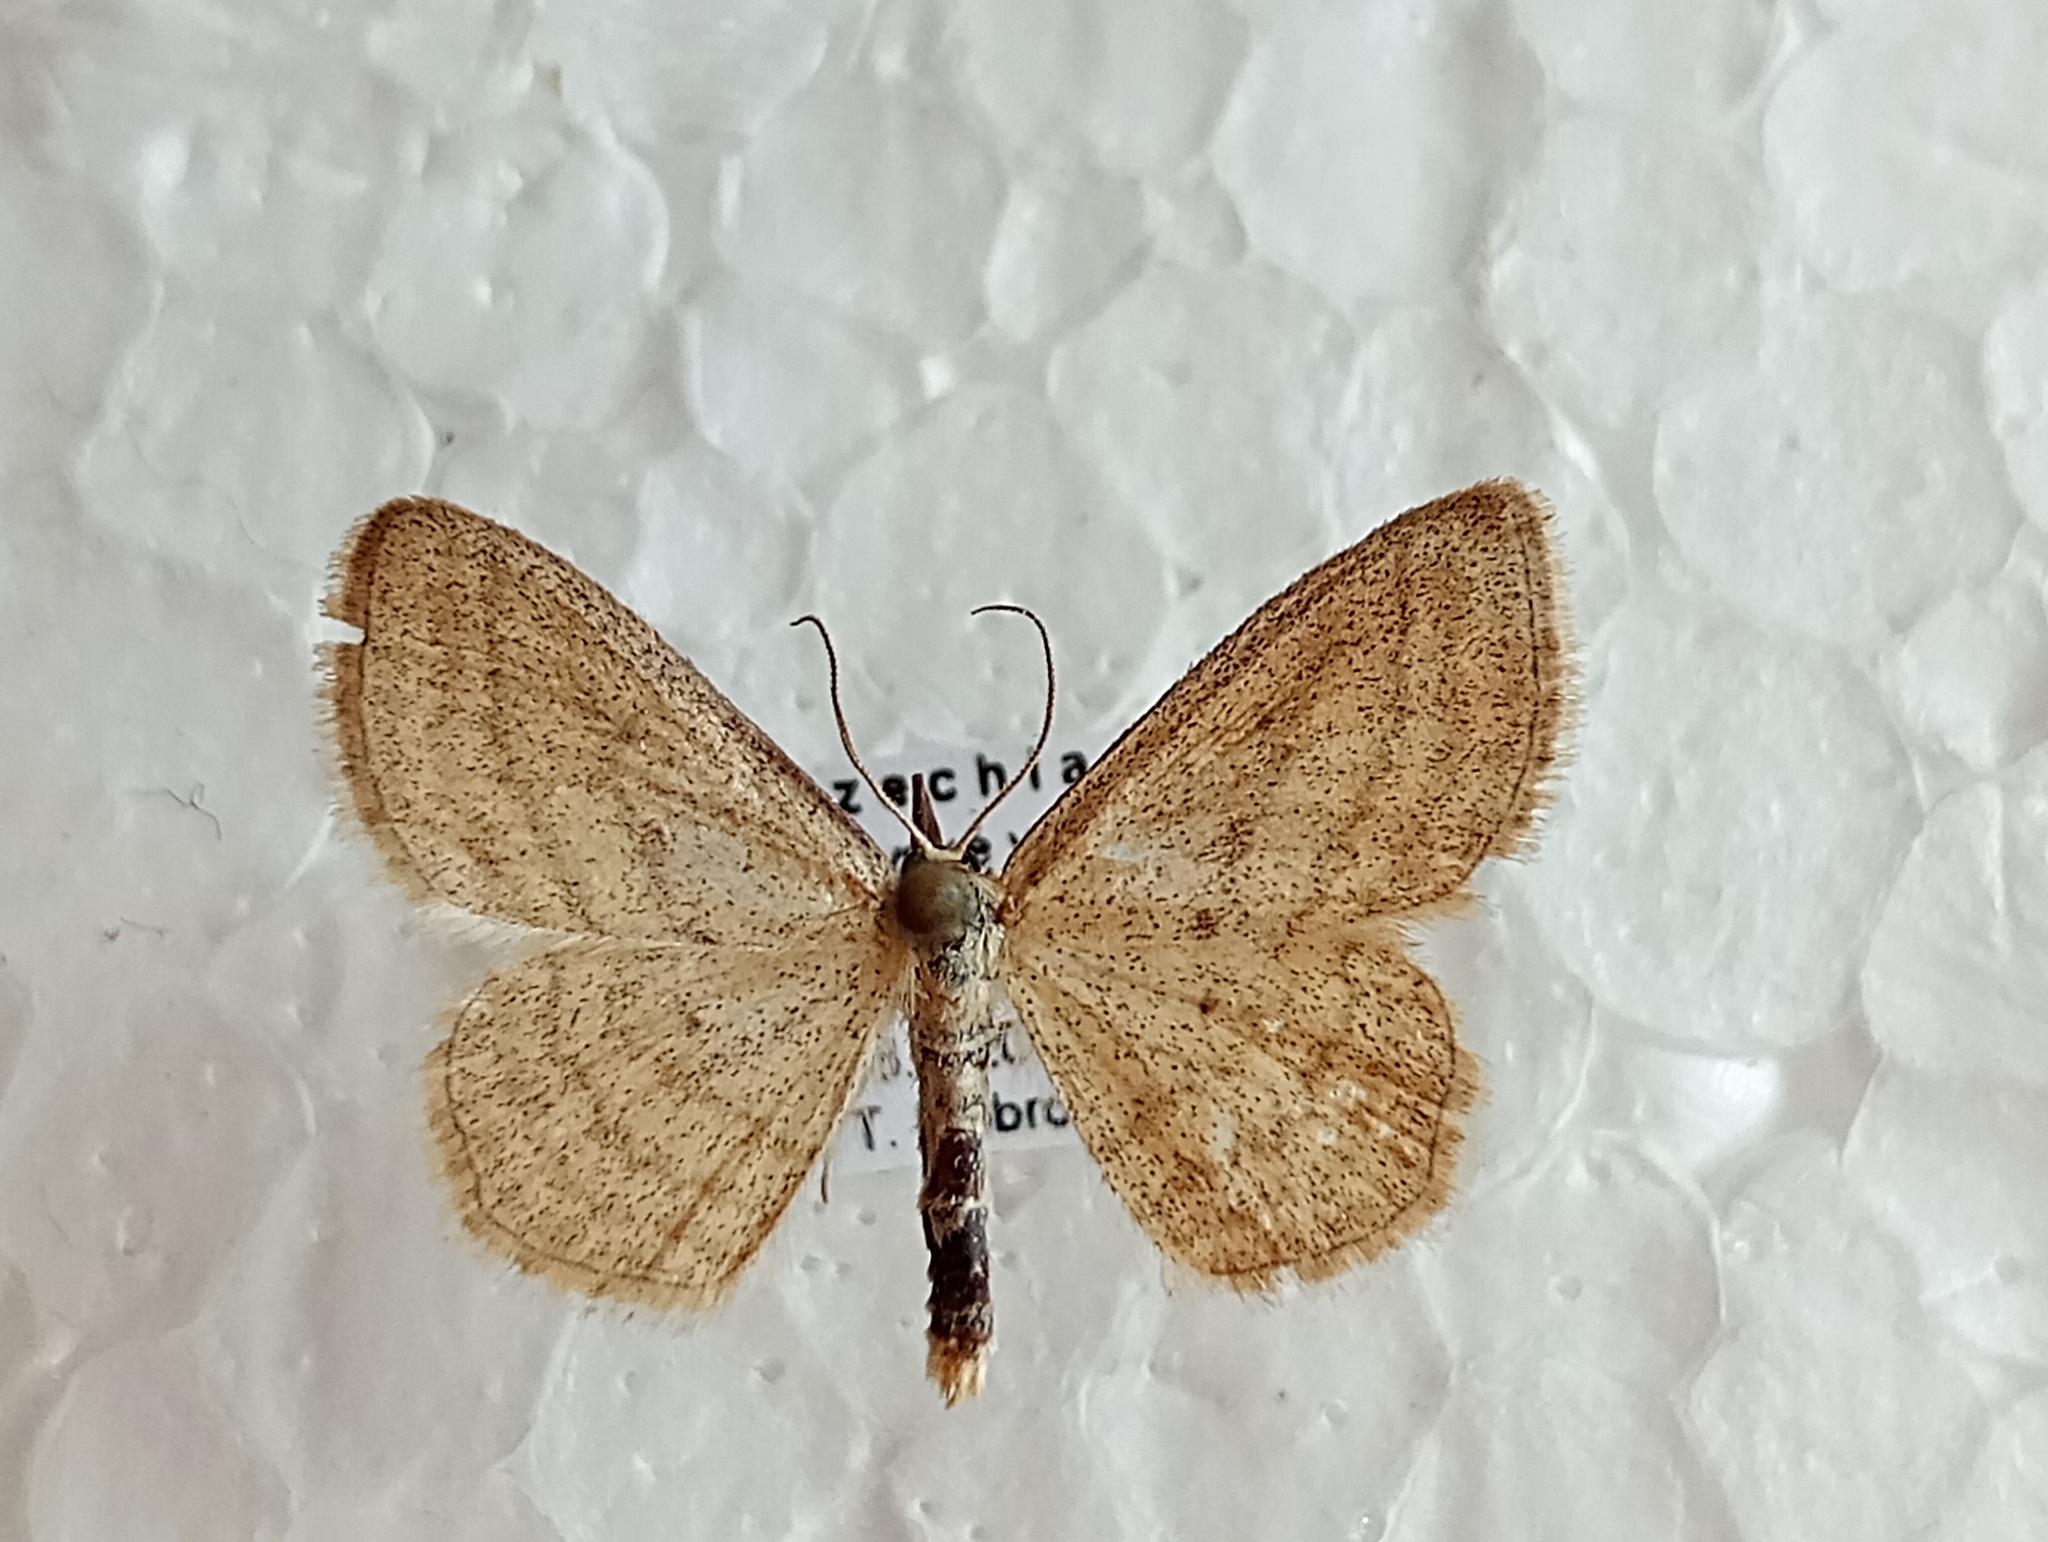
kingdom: Animalia
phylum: Arthropoda
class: Insecta
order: Lepidoptera
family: Geometridae
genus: Scopula
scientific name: Scopula virgulata
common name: Streaked wave
